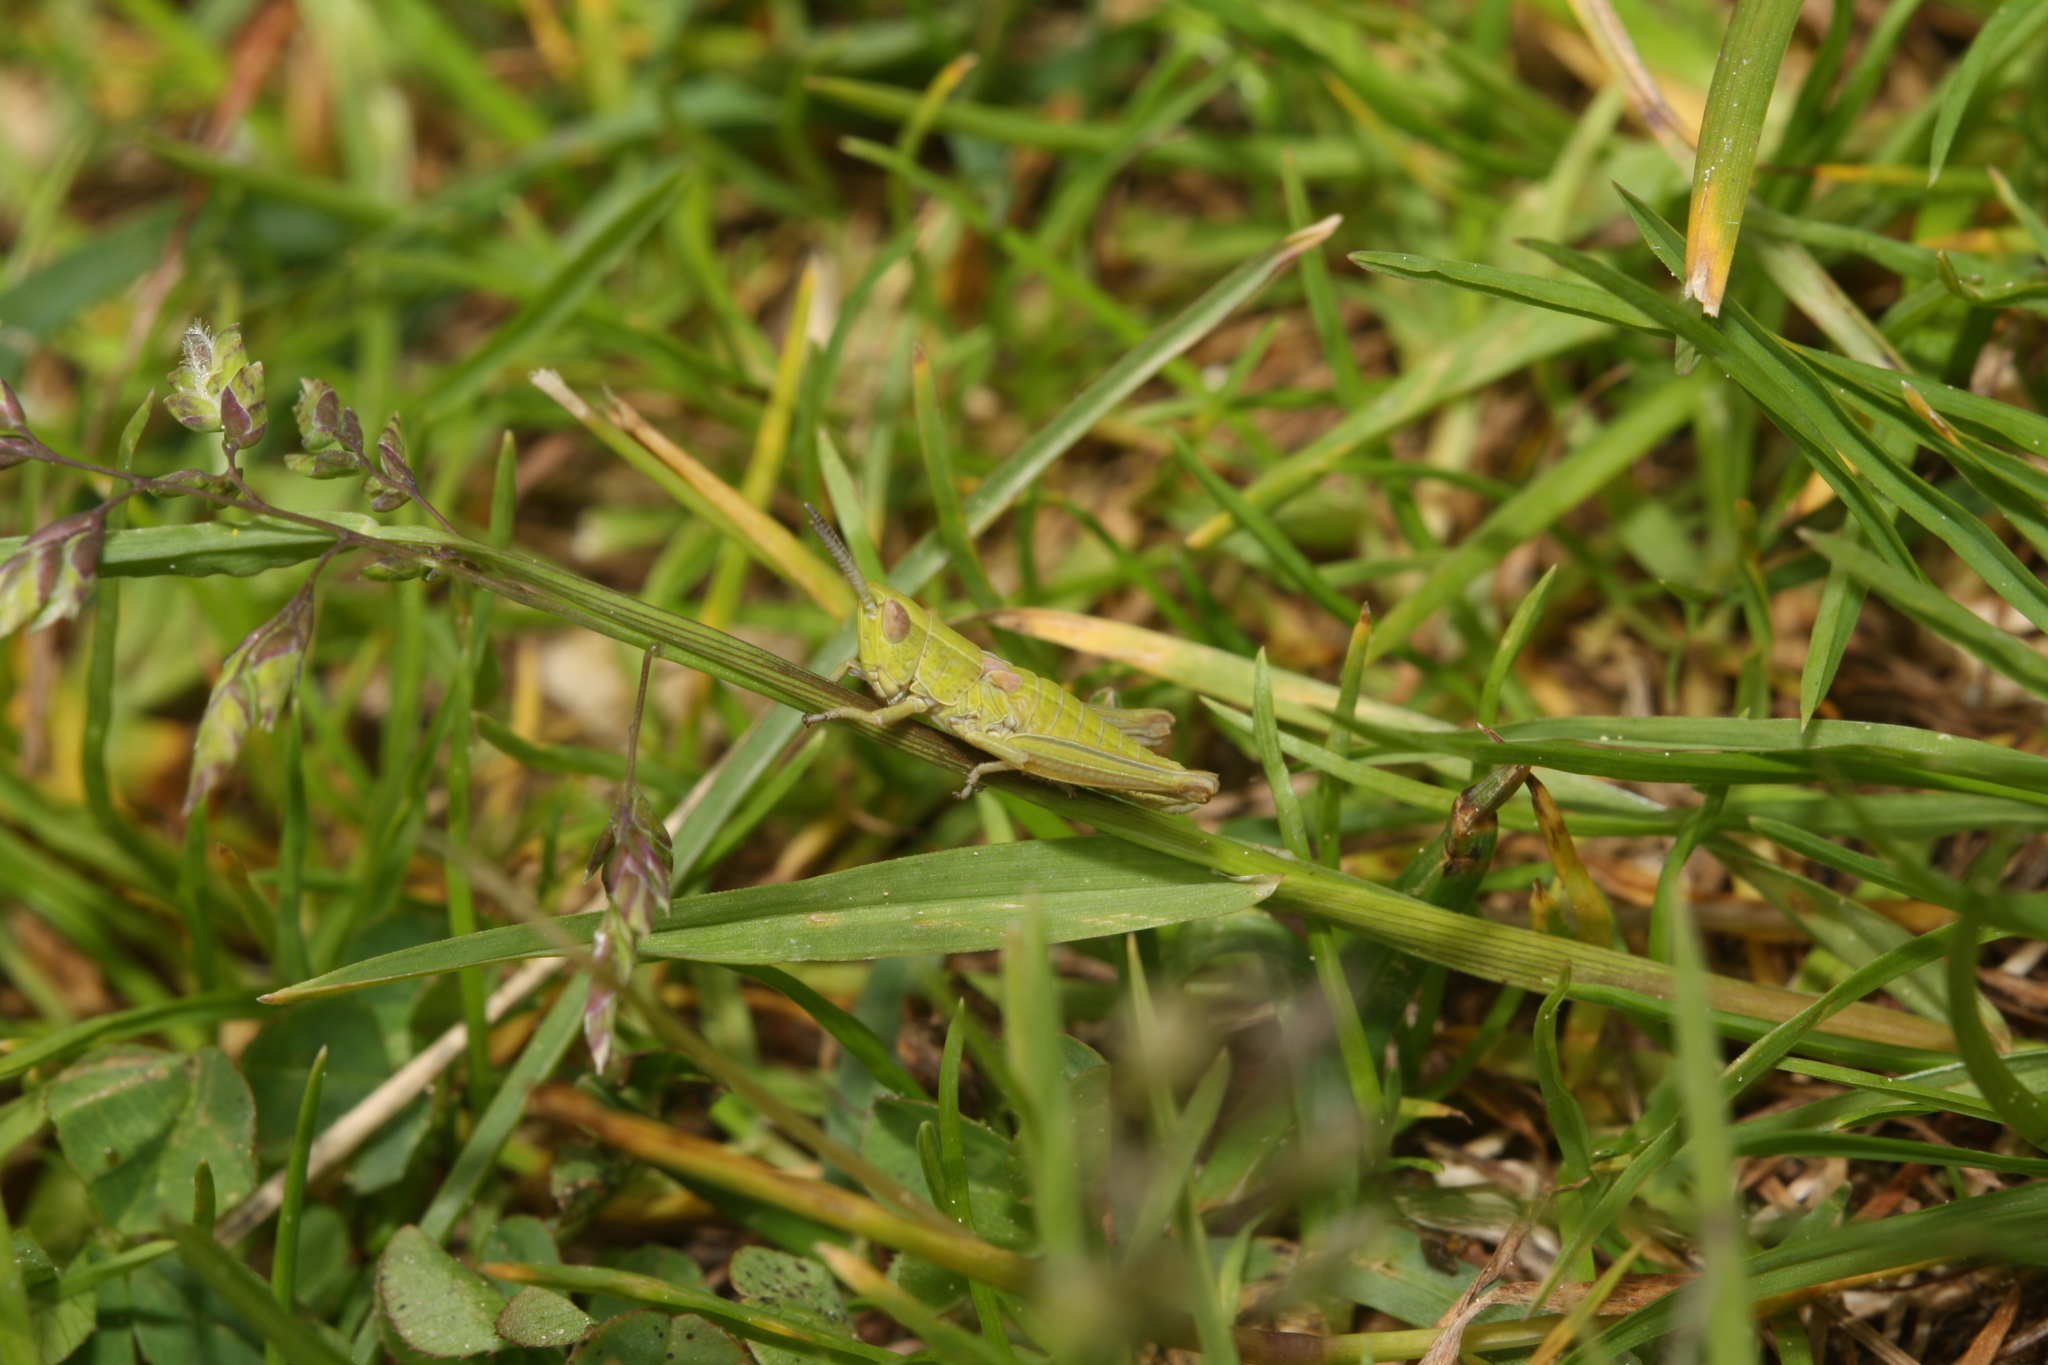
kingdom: Animalia
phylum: Arthropoda
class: Insecta
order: Orthoptera
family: Acrididae
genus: Euthystira
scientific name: Euthystira brachyptera
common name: Small gold grasshopper
